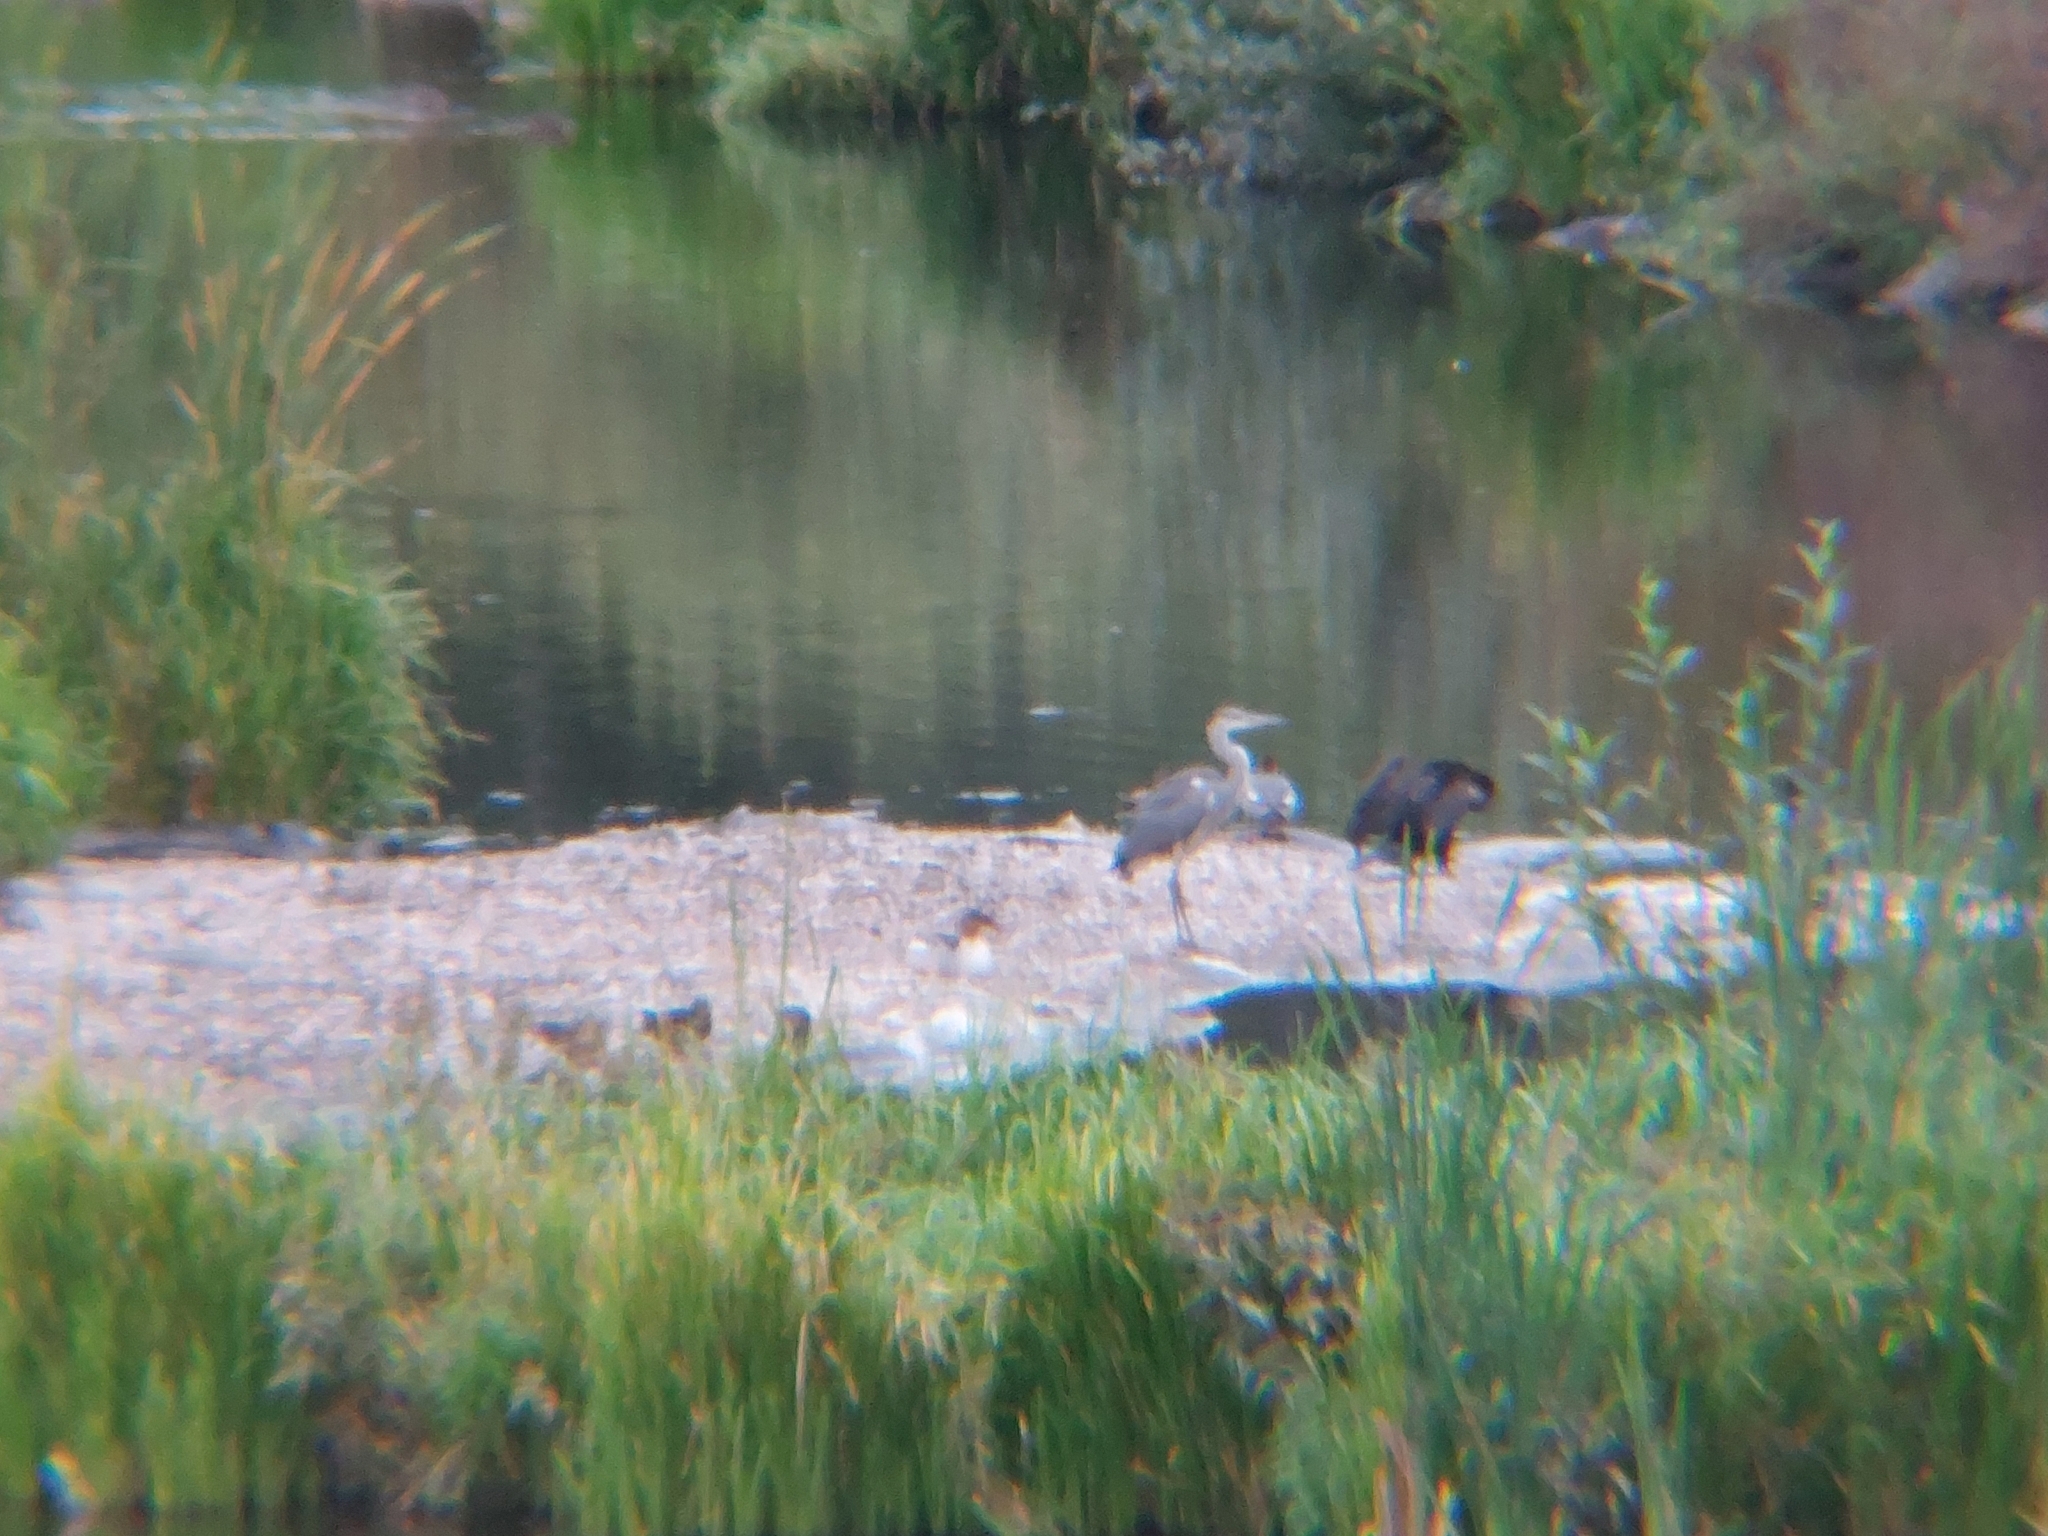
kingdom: Animalia
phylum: Chordata
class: Aves
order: Pelecaniformes
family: Ardeidae
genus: Ardea
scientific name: Ardea cinerea
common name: Grey heron
